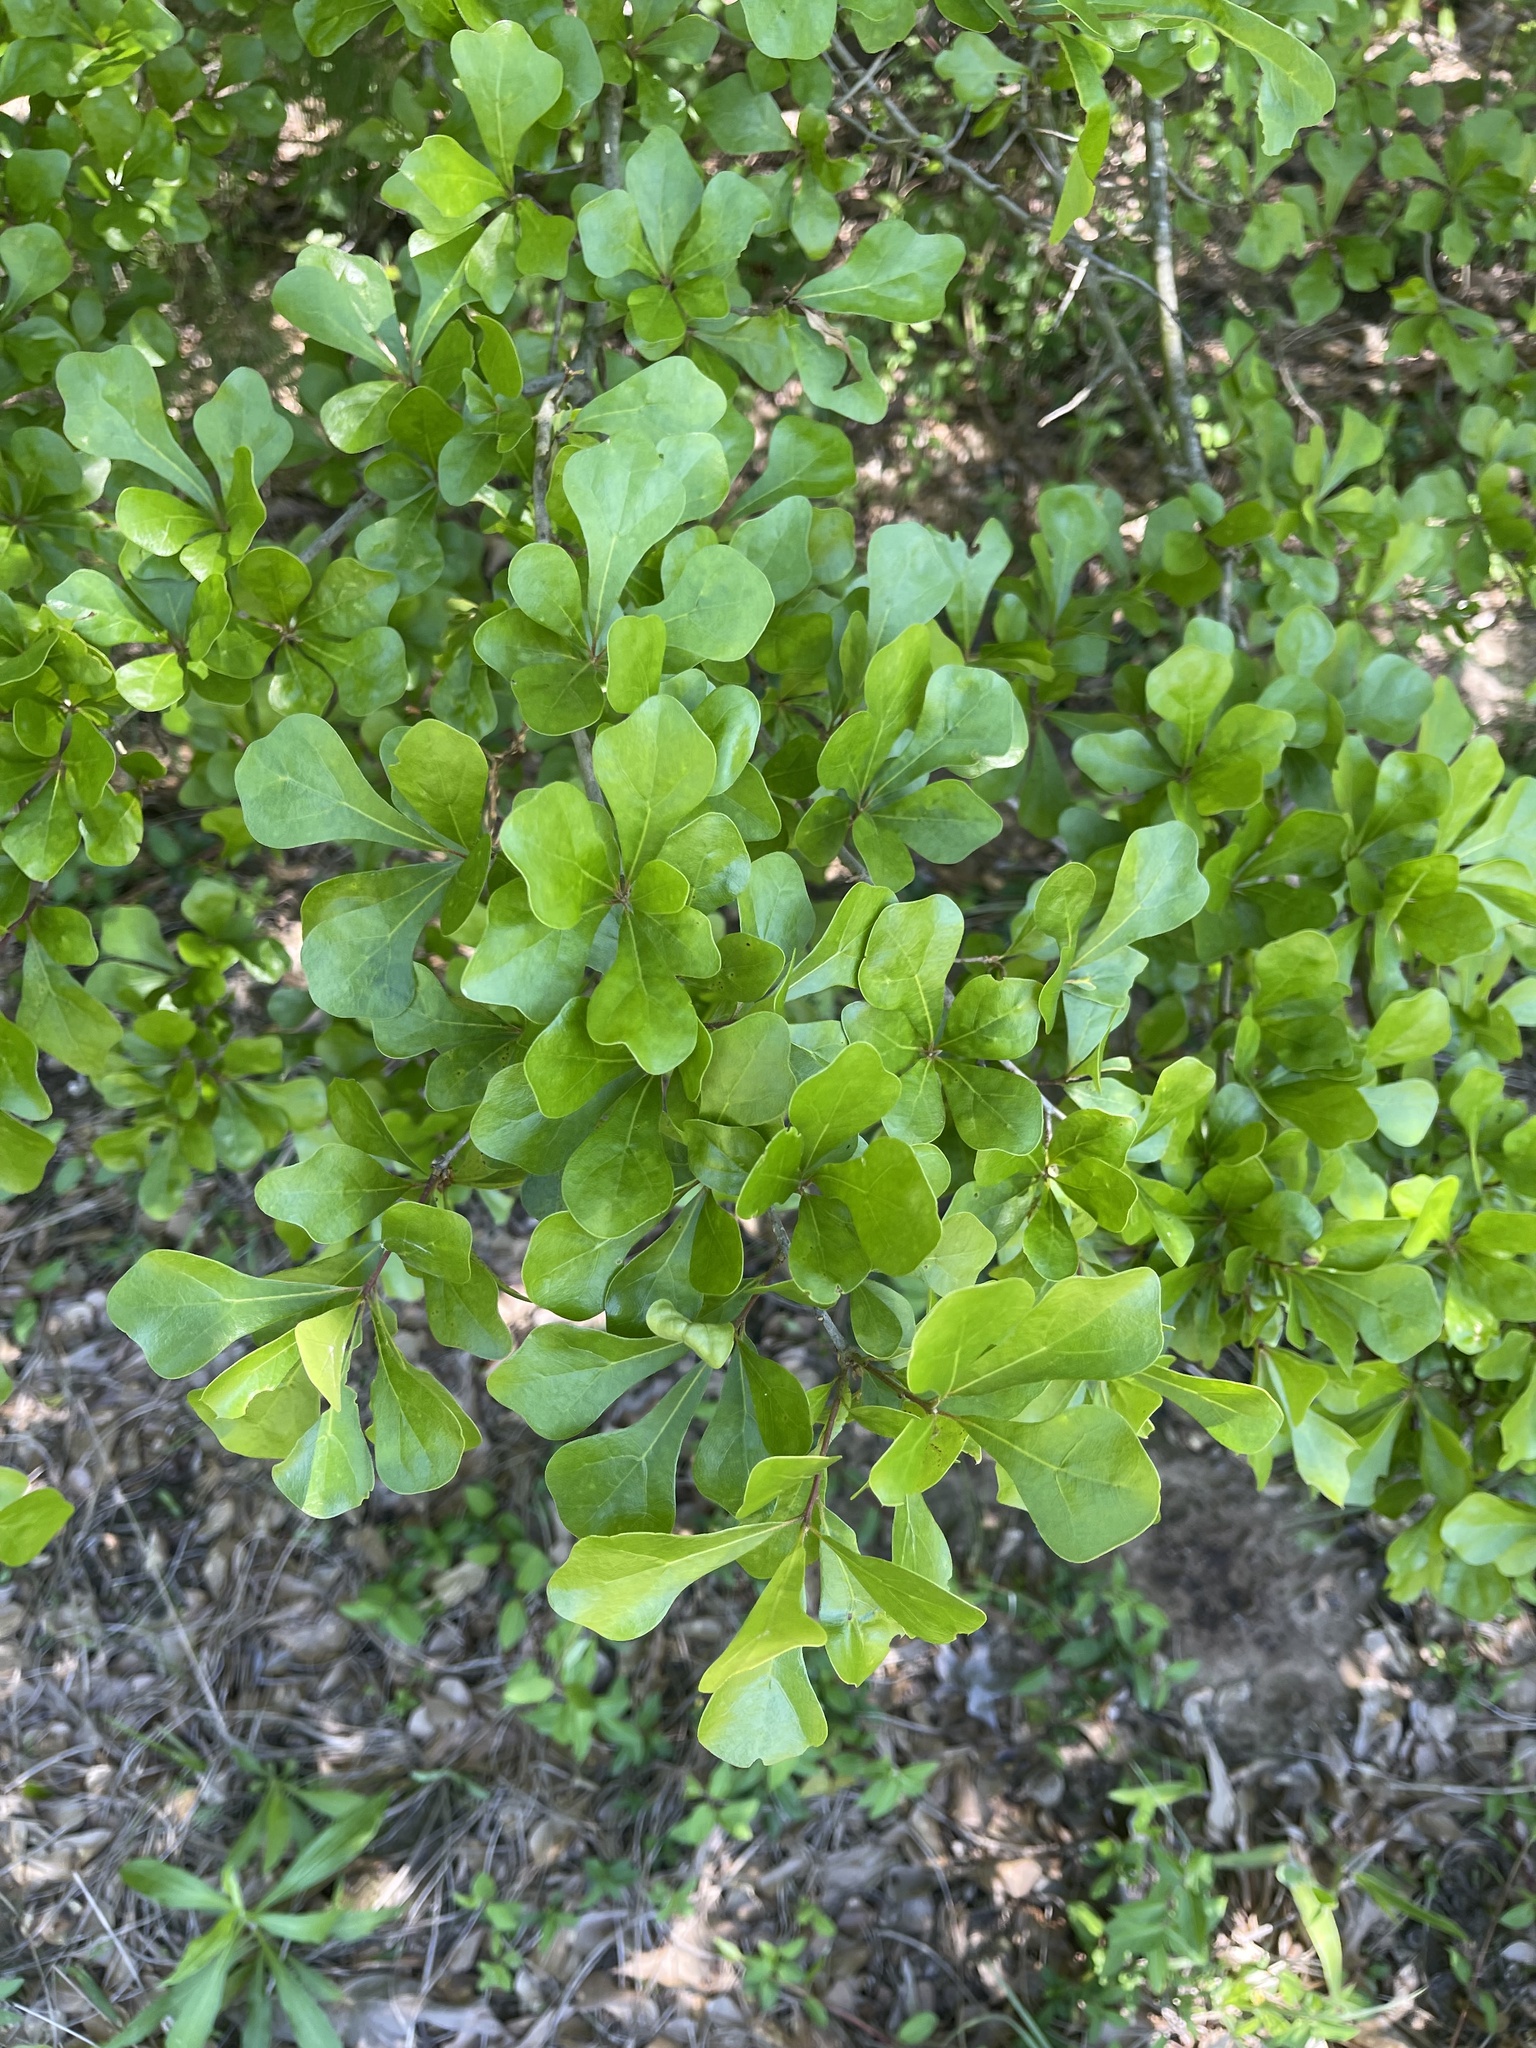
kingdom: Plantae
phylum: Tracheophyta
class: Magnoliopsida
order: Fagales
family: Fagaceae
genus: Quercus
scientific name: Quercus nigra
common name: Water oak
